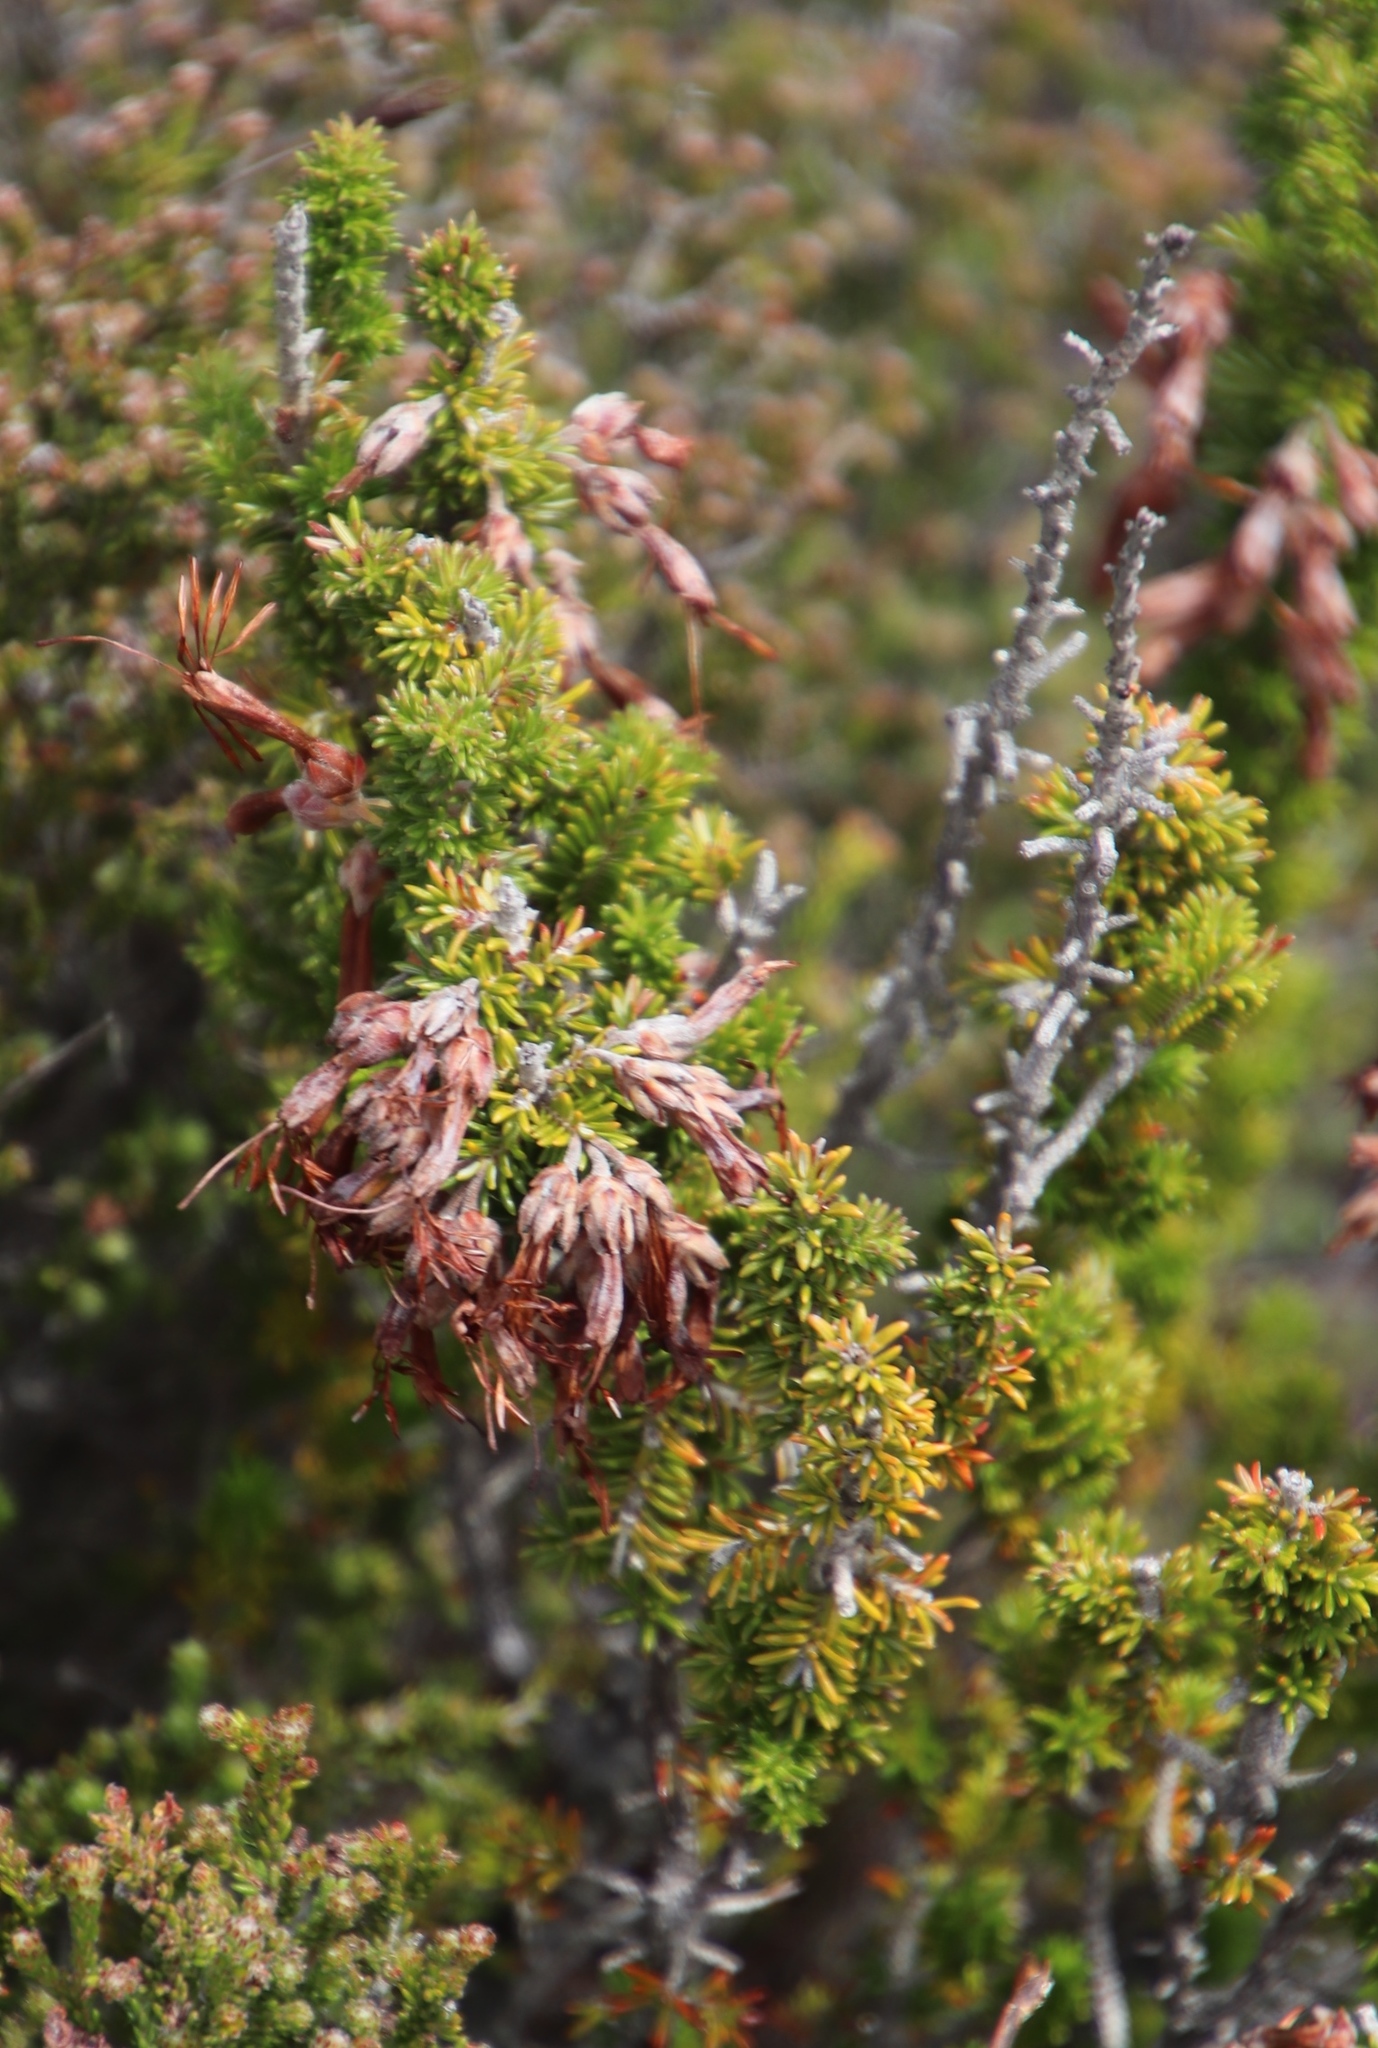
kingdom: Plantae
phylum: Tracheophyta
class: Magnoliopsida
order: Ericales
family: Ericaceae
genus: Erica
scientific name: Erica coccinea
